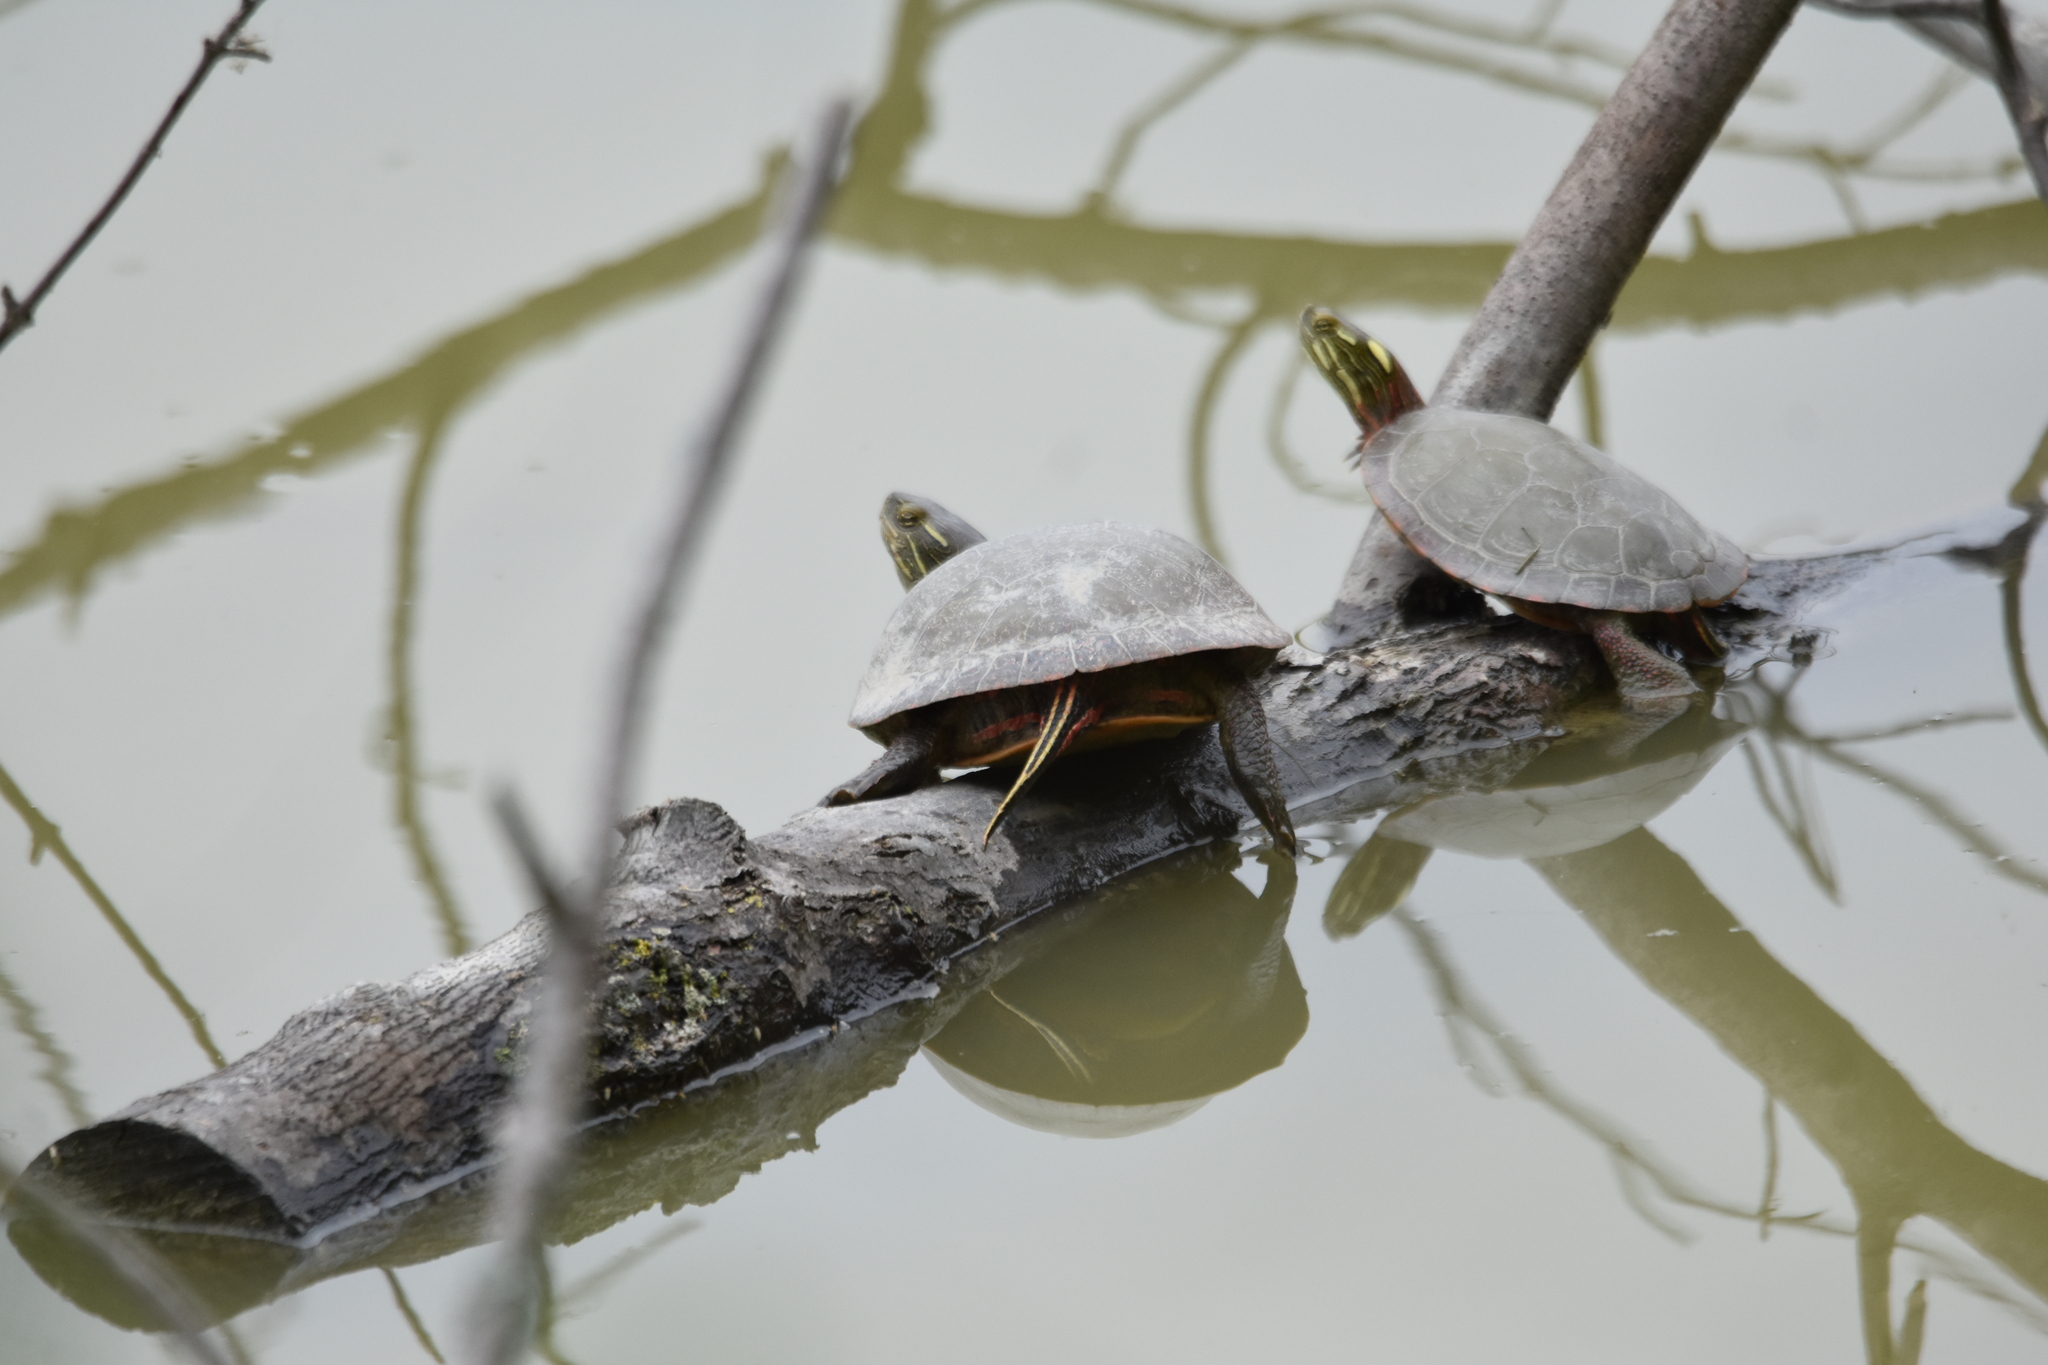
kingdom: Animalia
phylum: Chordata
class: Testudines
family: Emydidae
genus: Chrysemys
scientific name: Chrysemys picta
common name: Painted turtle
